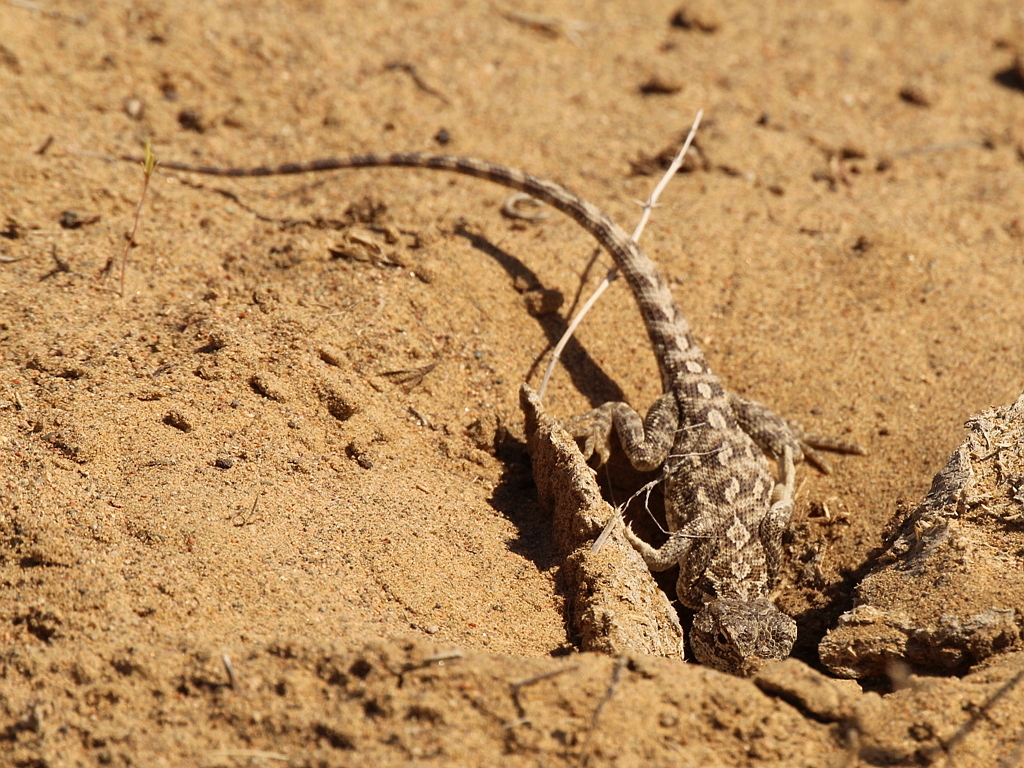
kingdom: Animalia
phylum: Chordata
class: Squamata
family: Agamidae
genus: Trapelus
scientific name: Trapelus sanguinolentus
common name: Steppe agama
